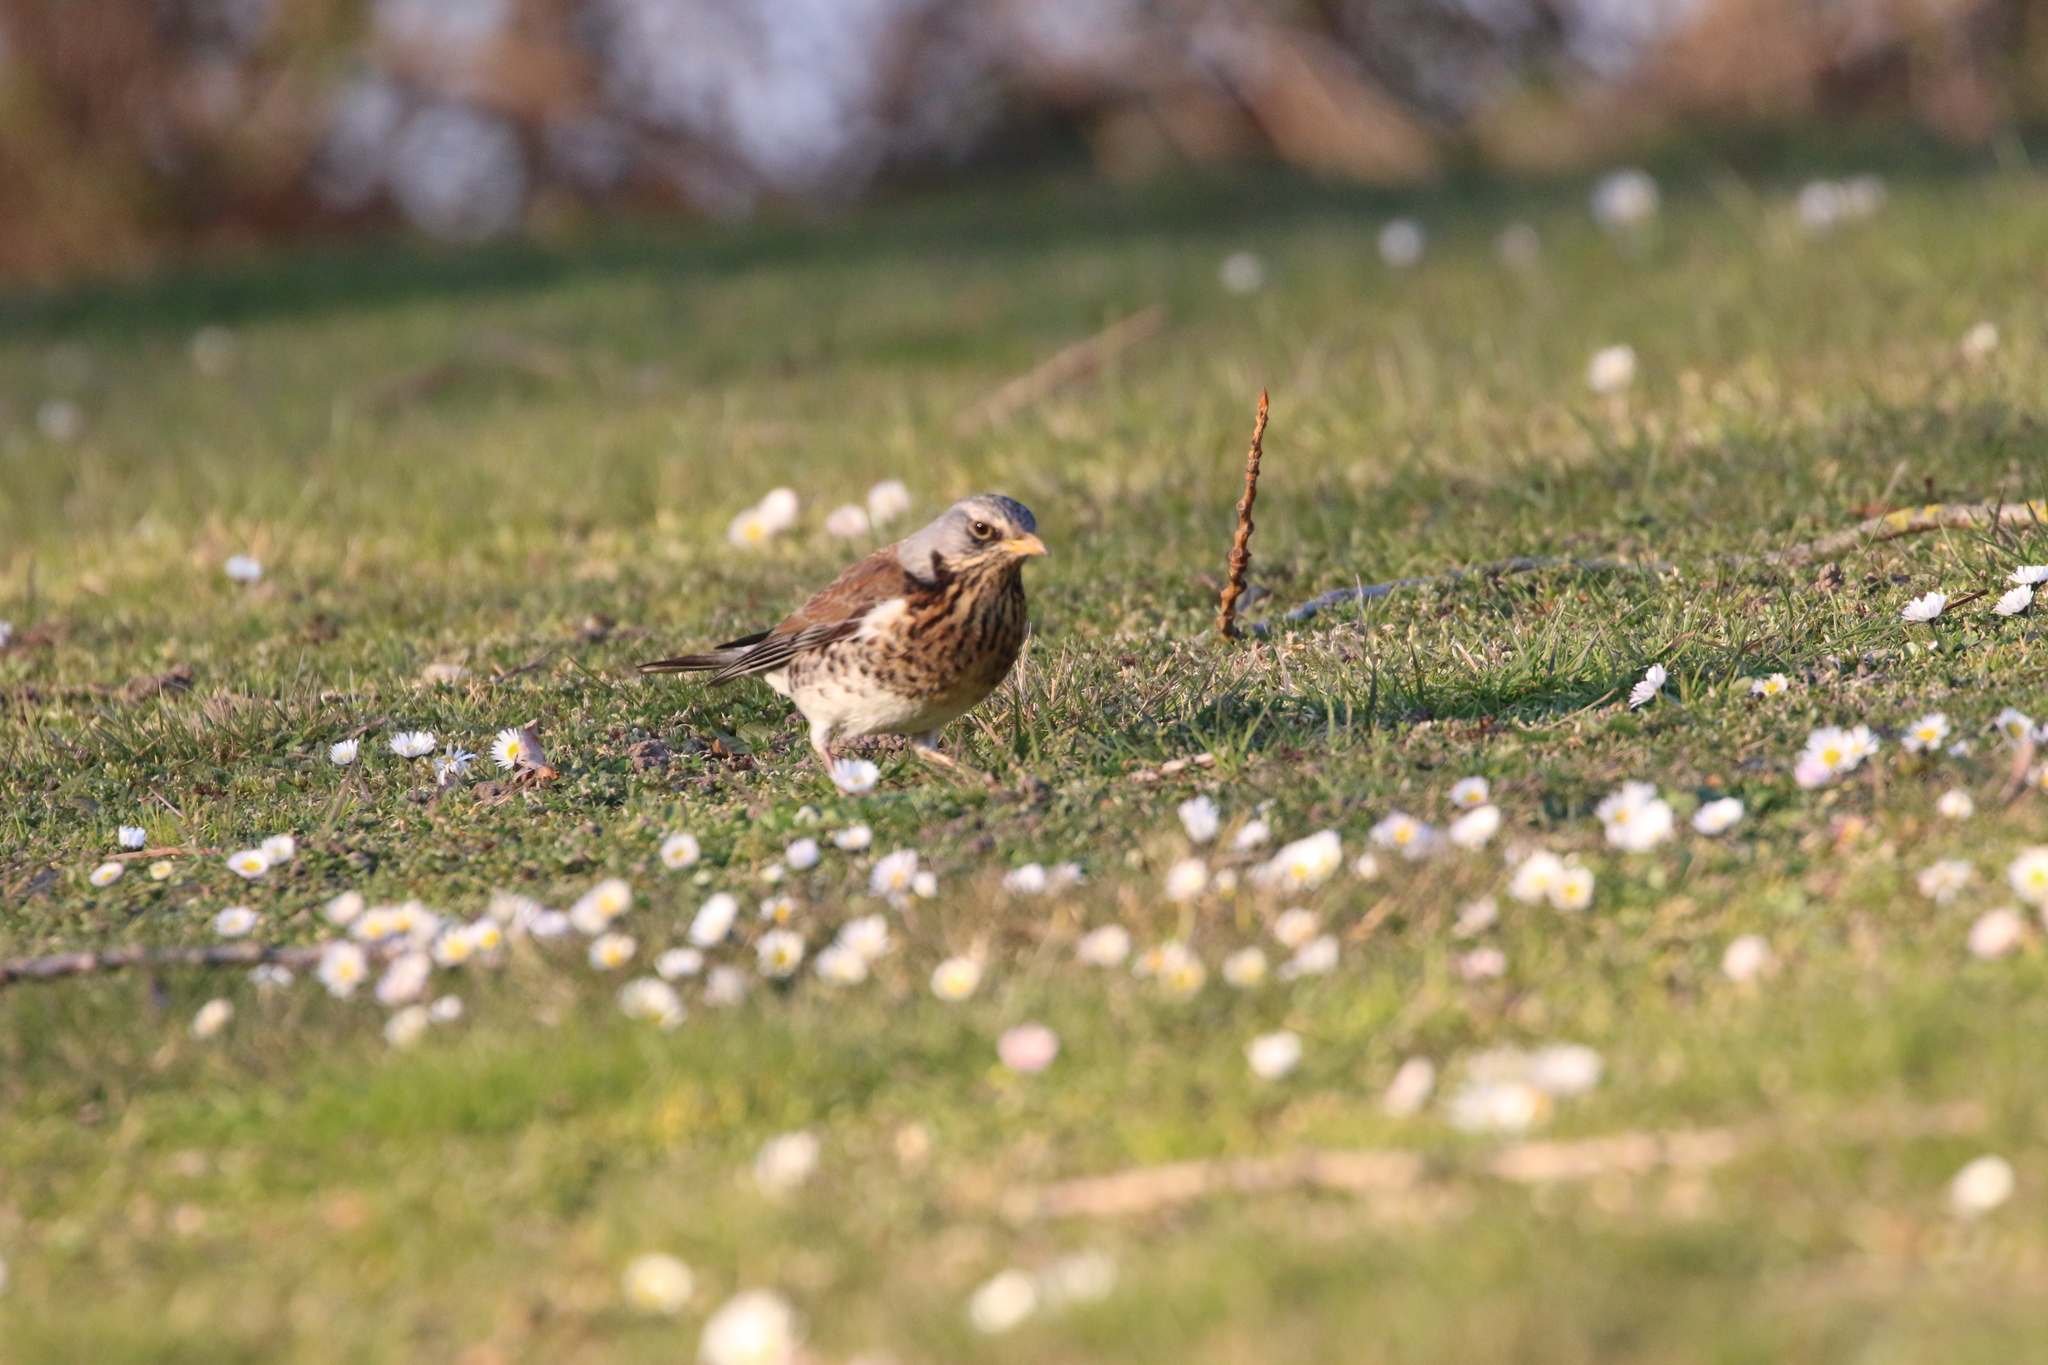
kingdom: Animalia
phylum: Chordata
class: Aves
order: Passeriformes
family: Turdidae
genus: Turdus
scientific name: Turdus pilaris
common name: Fieldfare
